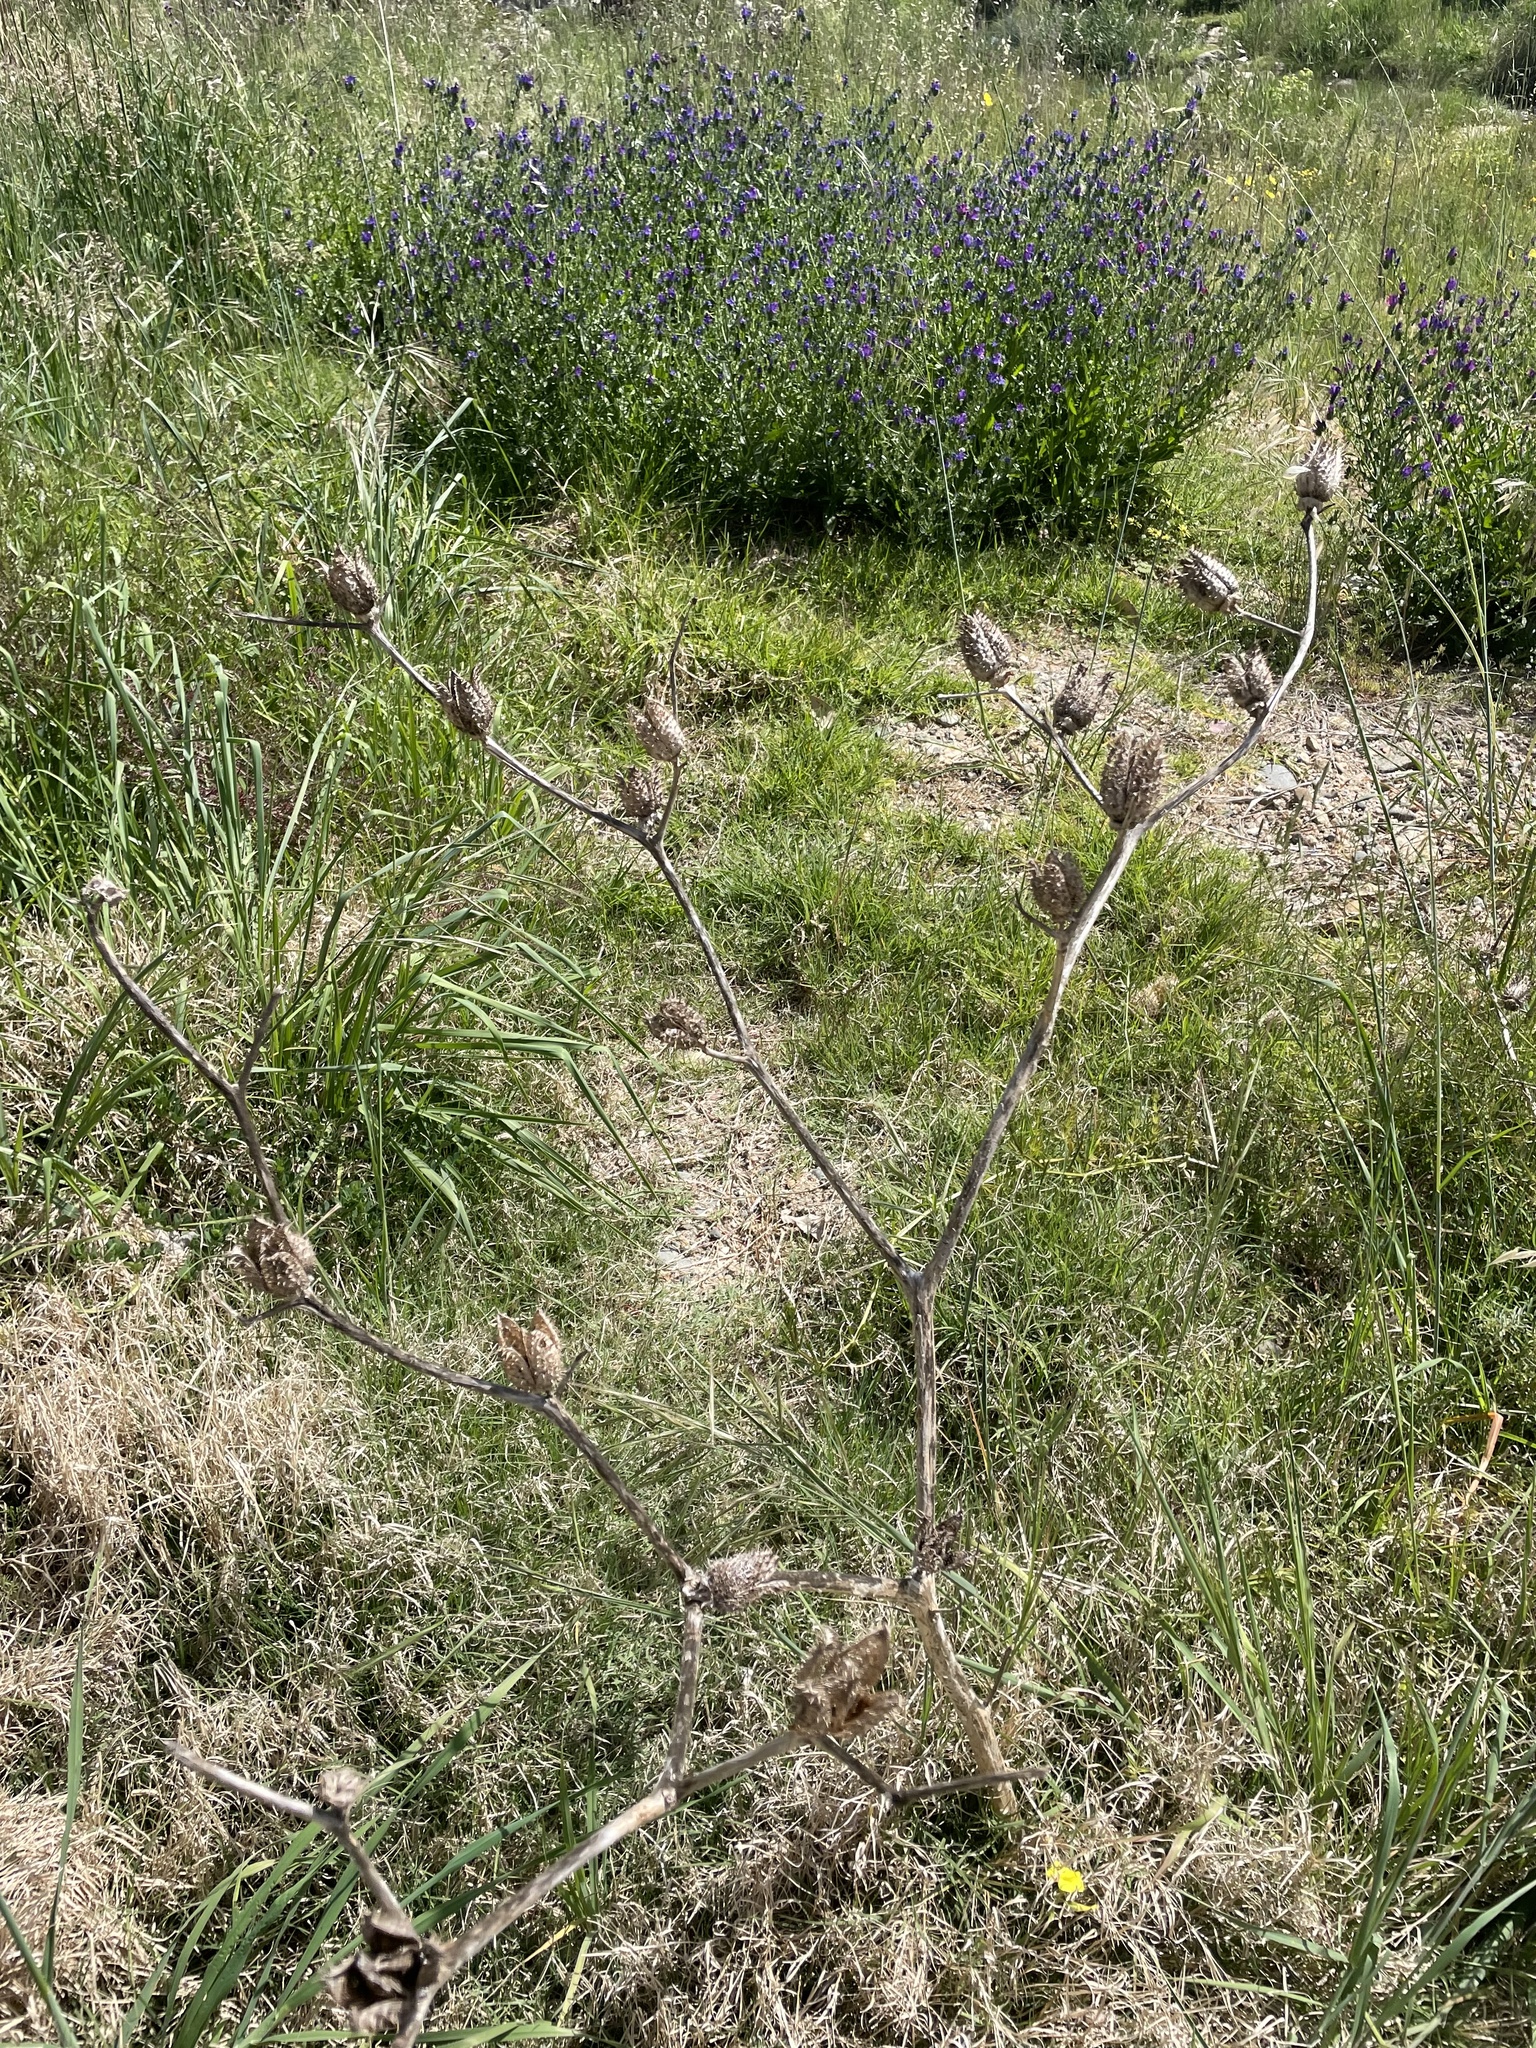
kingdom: Plantae
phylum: Tracheophyta
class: Magnoliopsida
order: Solanales
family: Solanaceae
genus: Datura
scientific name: Datura stramonium
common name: Thorn-apple
